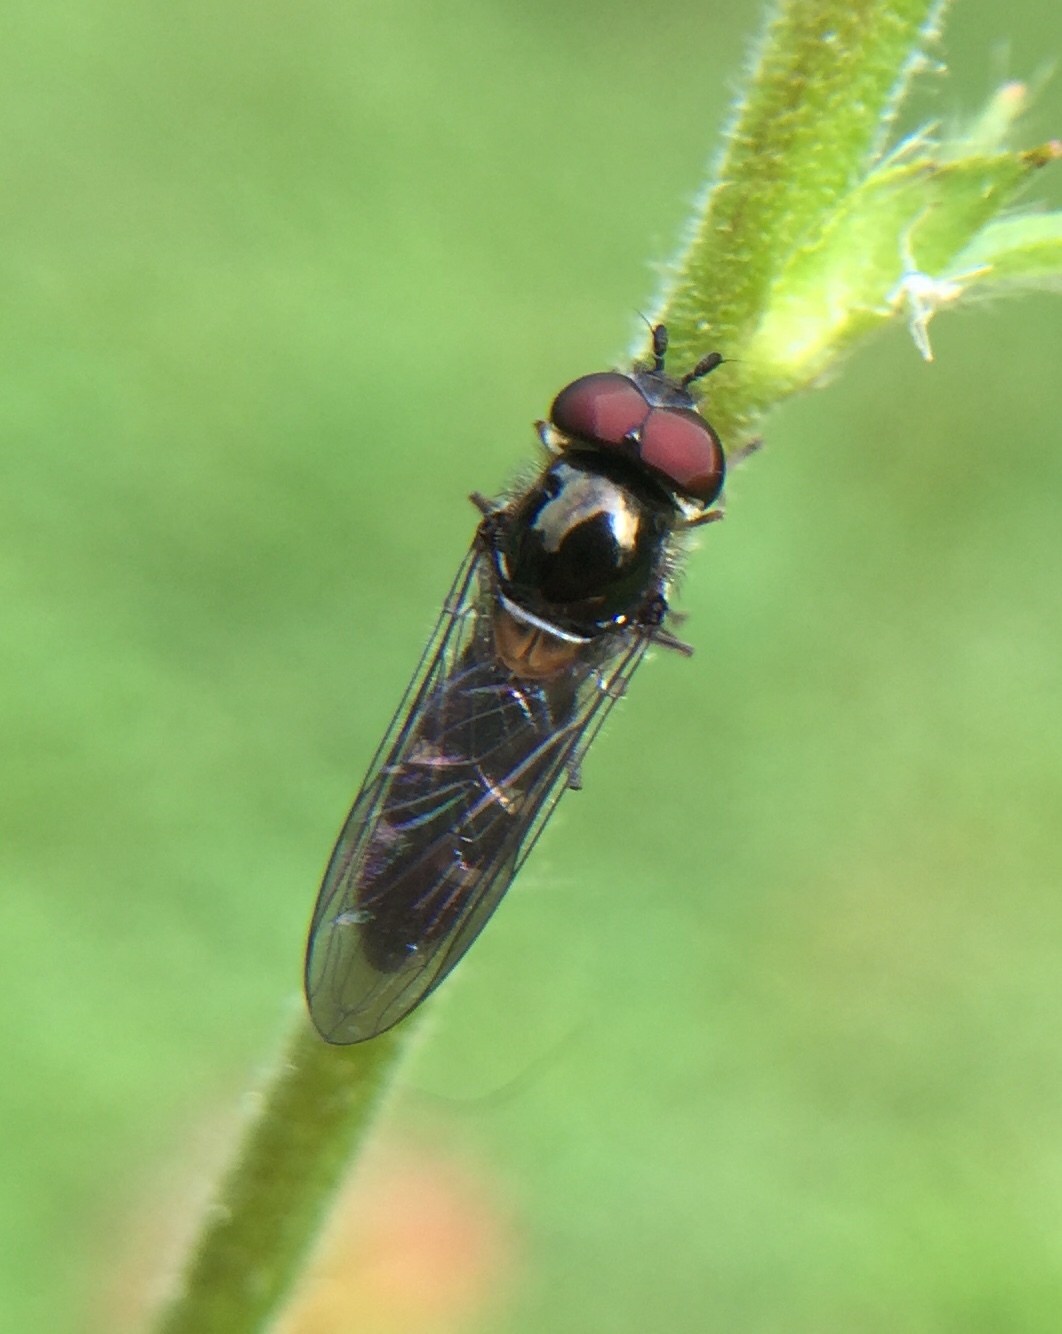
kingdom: Animalia
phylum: Arthropoda
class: Insecta
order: Diptera
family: Syrphidae
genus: Melangyna
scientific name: Melangyna novaezelandiae
